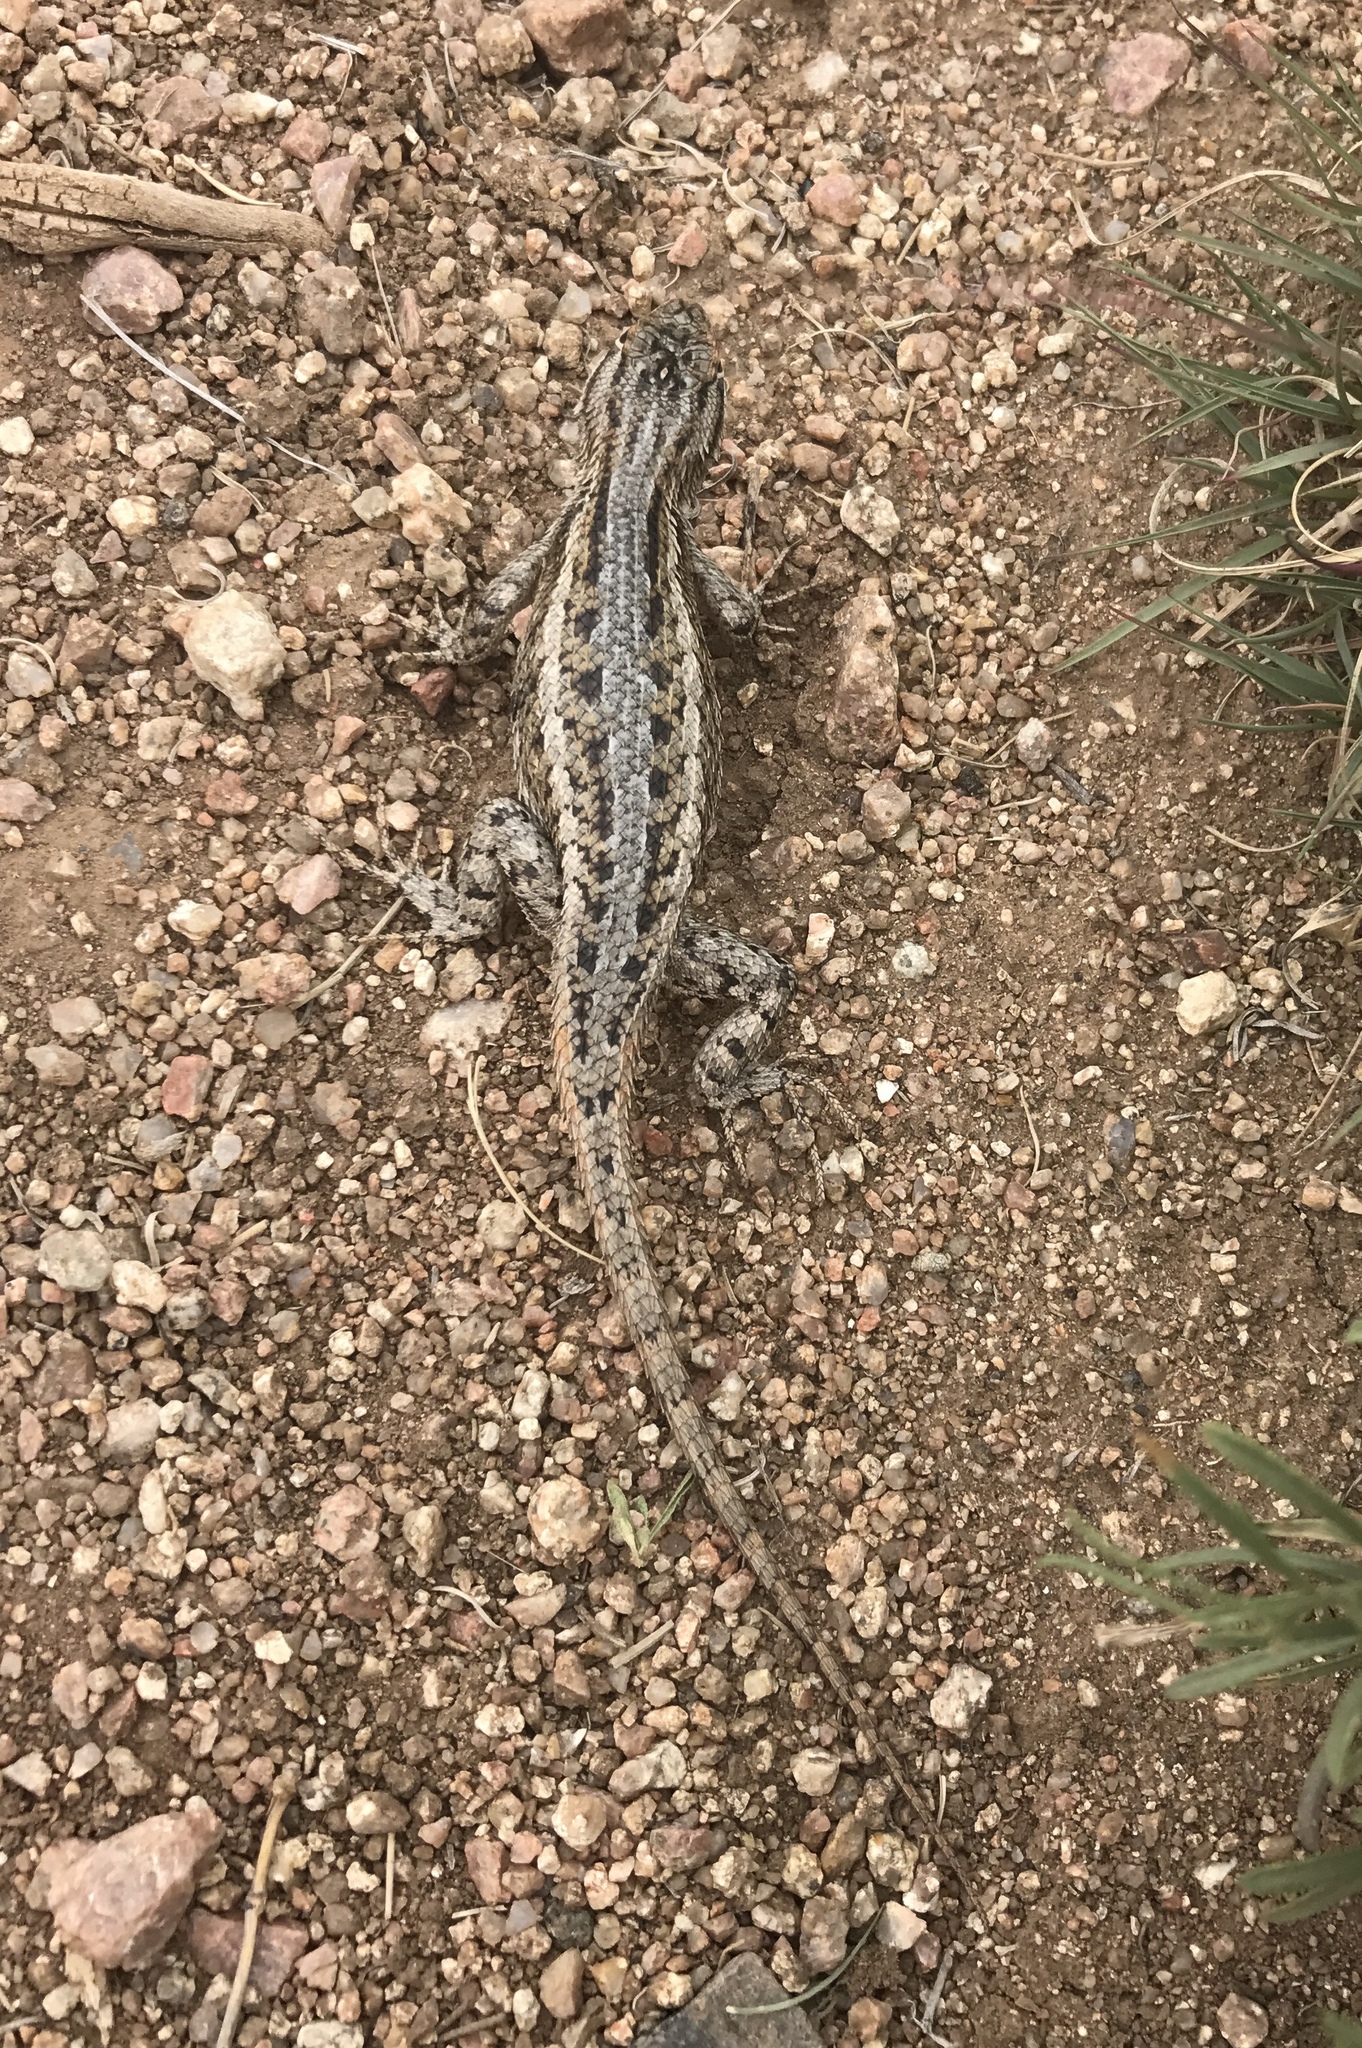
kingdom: Animalia
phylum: Chordata
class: Squamata
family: Phrynosomatidae
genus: Sceloporus
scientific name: Sceloporus cowlesi
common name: White sands prairie lizard
